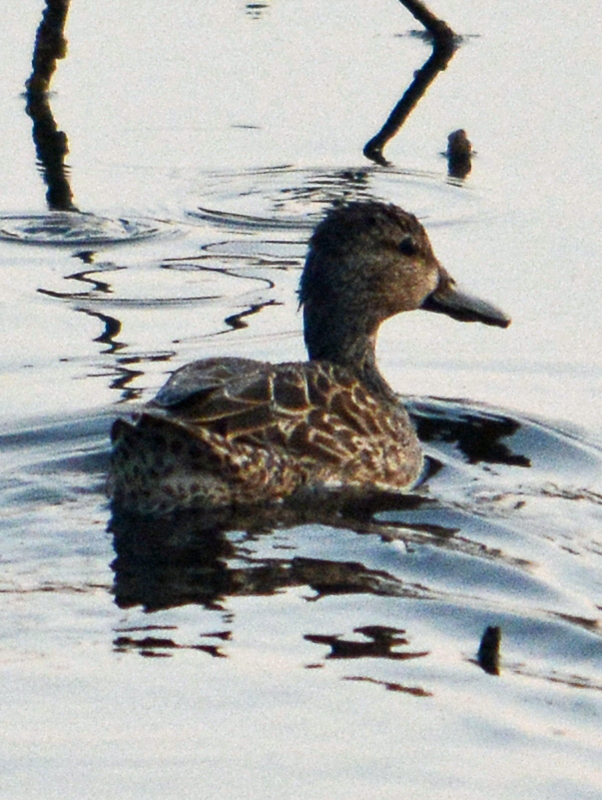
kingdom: Animalia
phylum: Chordata
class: Aves
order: Anseriformes
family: Anatidae
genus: Spatula
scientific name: Spatula discors
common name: Blue-winged teal
